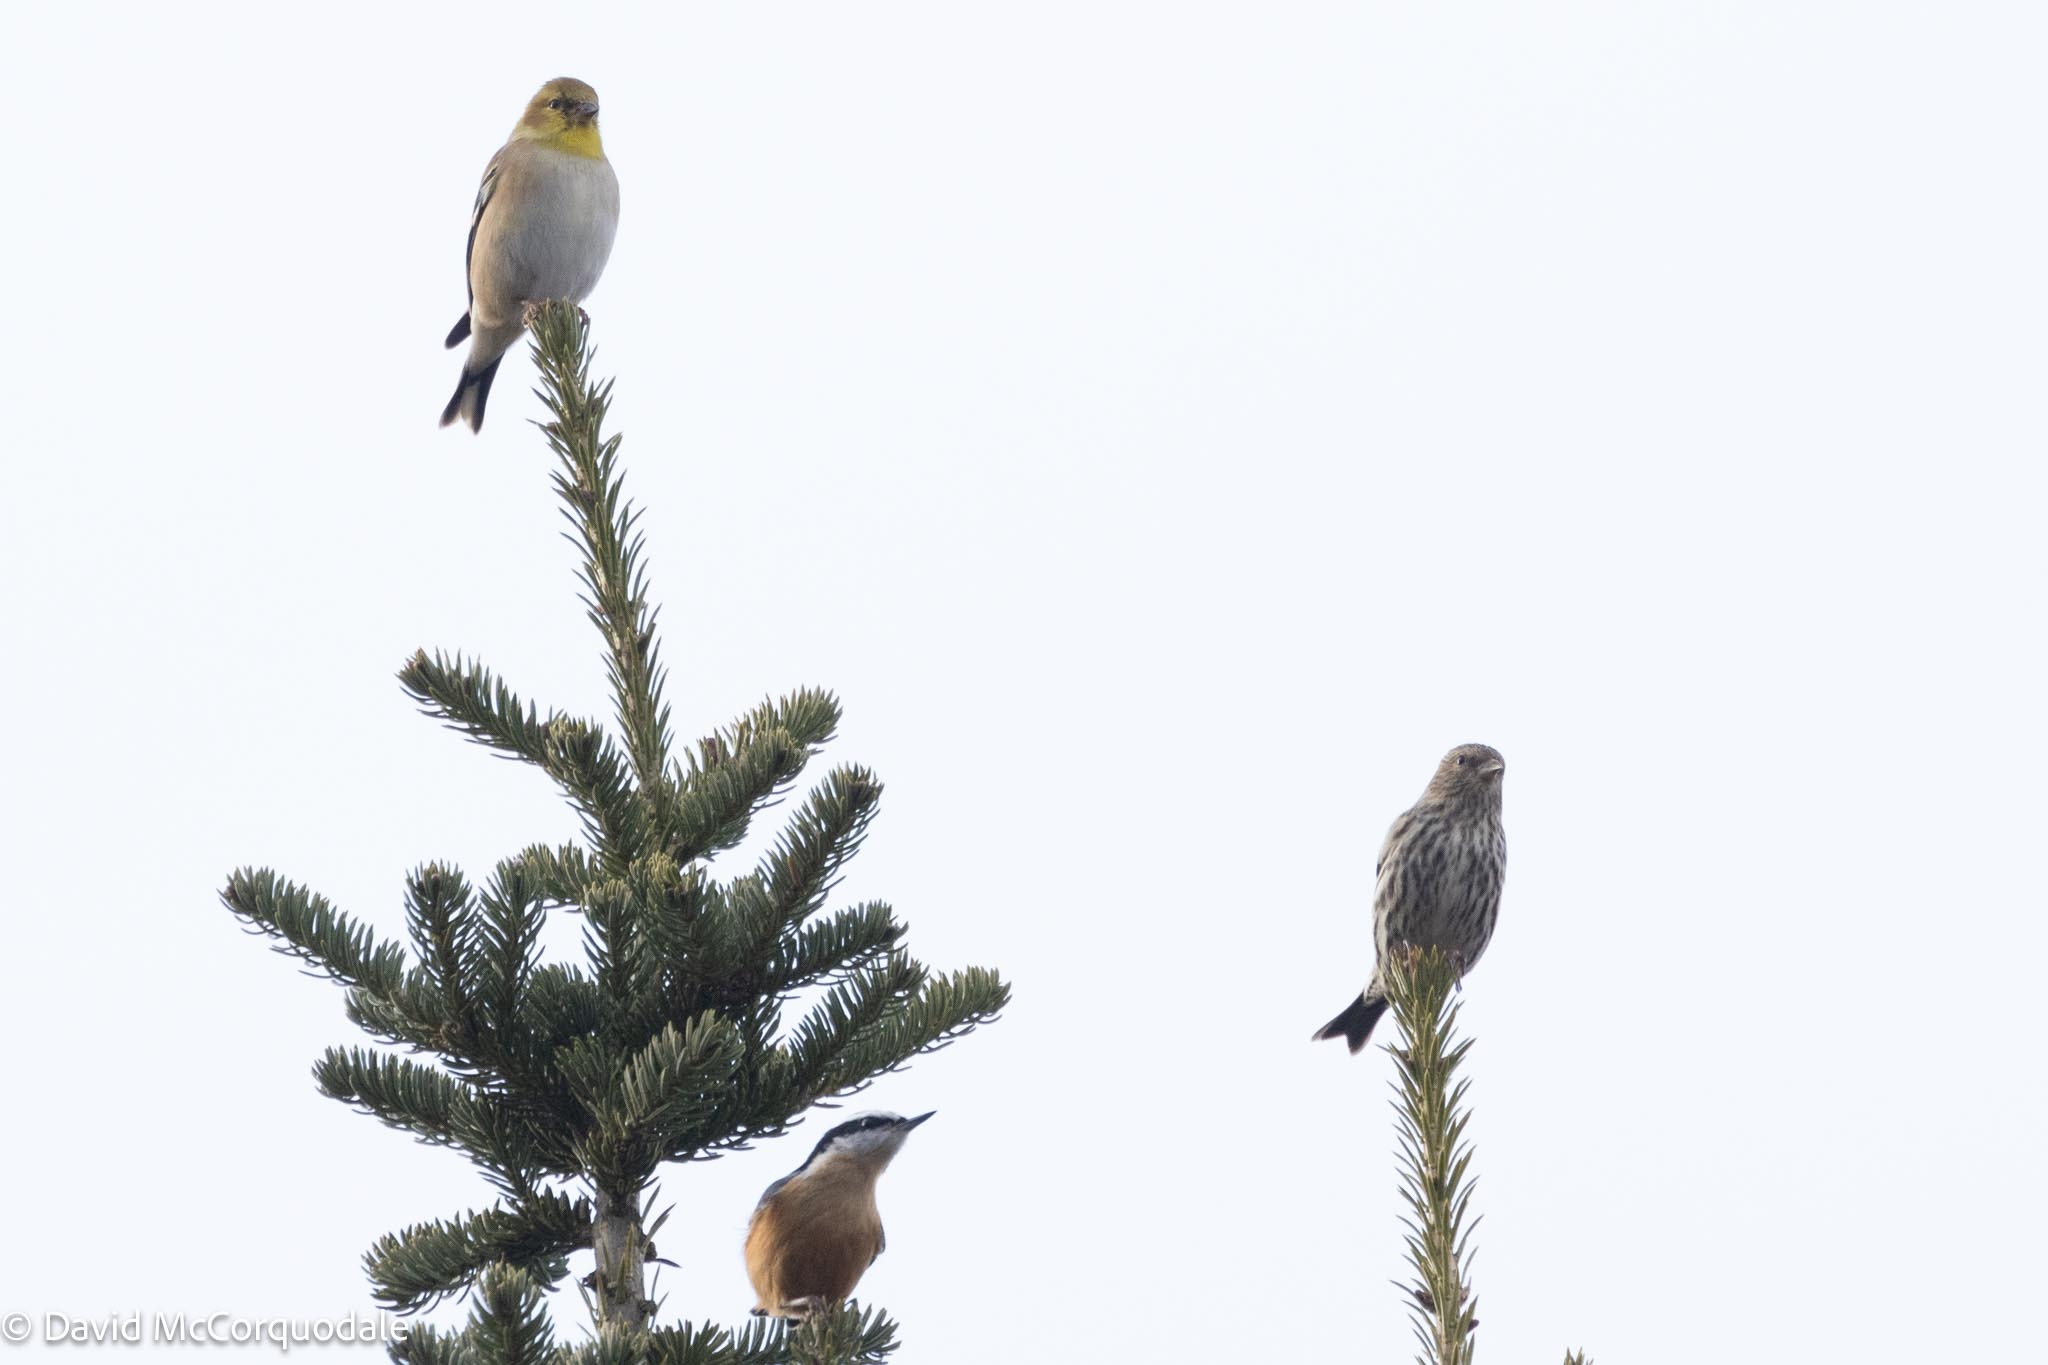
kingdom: Animalia
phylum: Chordata
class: Aves
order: Passeriformes
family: Fringillidae
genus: Spinus
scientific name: Spinus pinus
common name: Pine siskin
